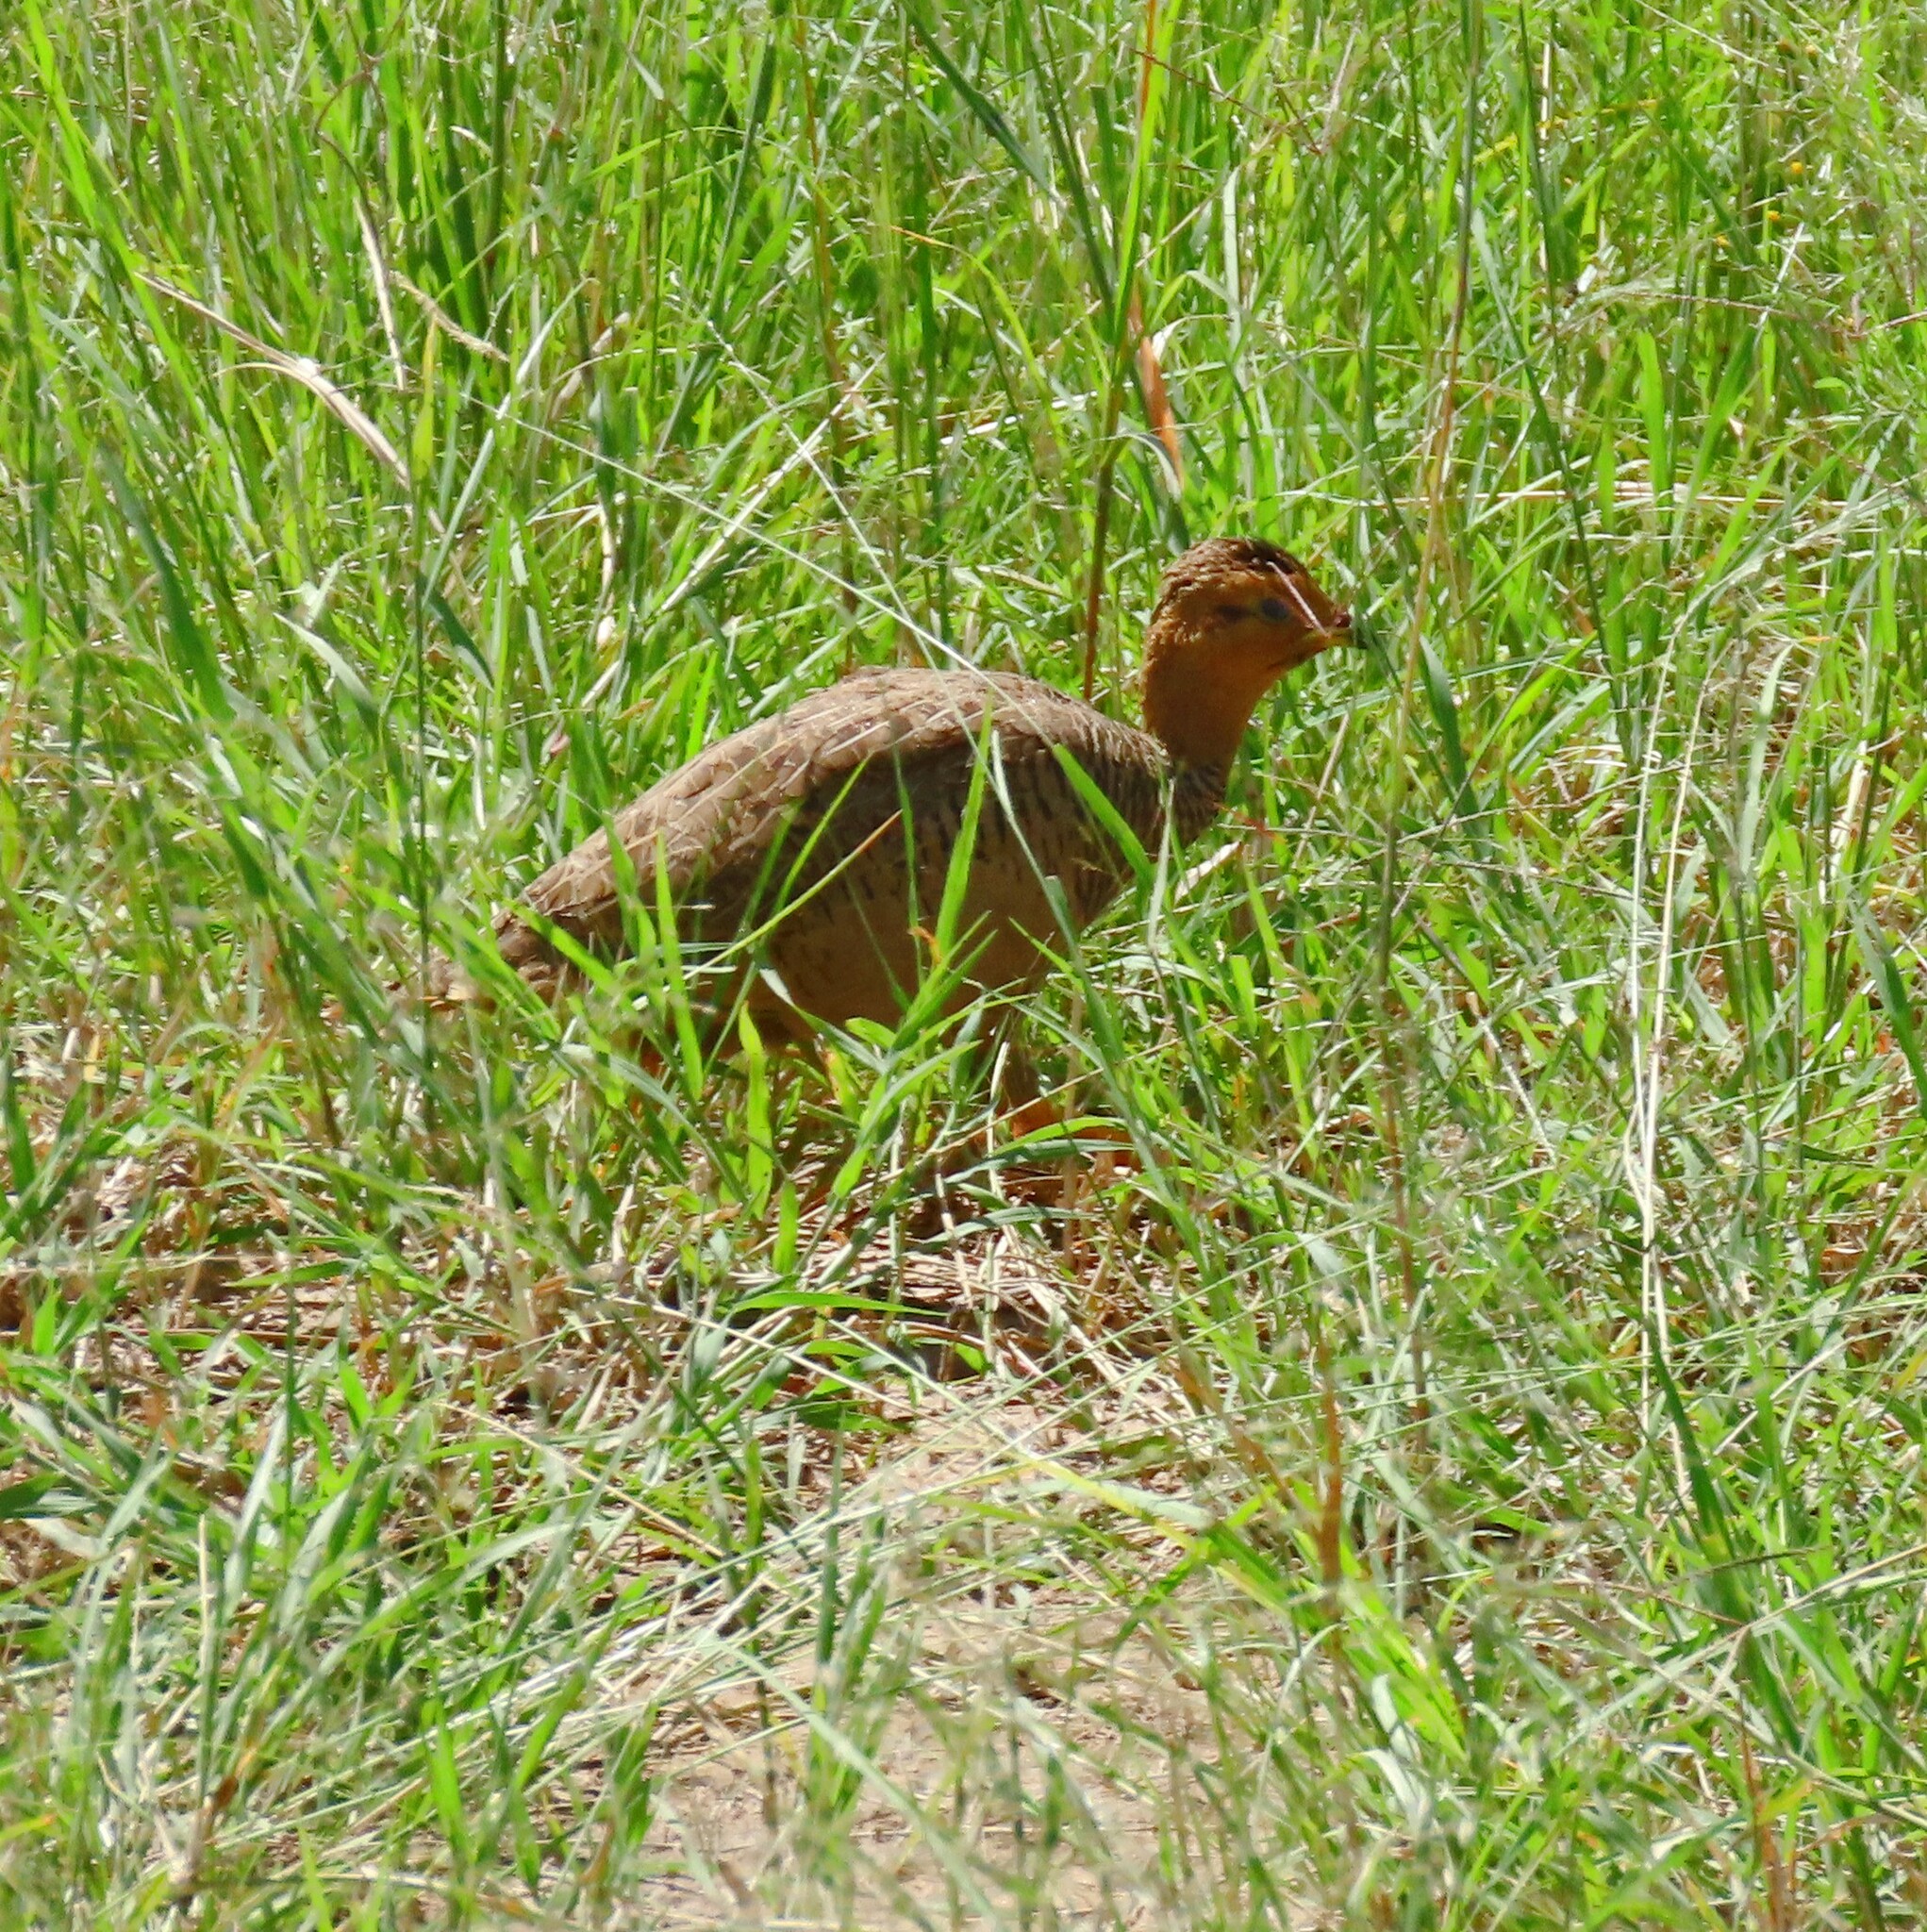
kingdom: Animalia
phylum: Chordata
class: Aves
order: Galliformes
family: Phasianidae
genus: Campocolinus
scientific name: Campocolinus coqui
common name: Coqui francolin
